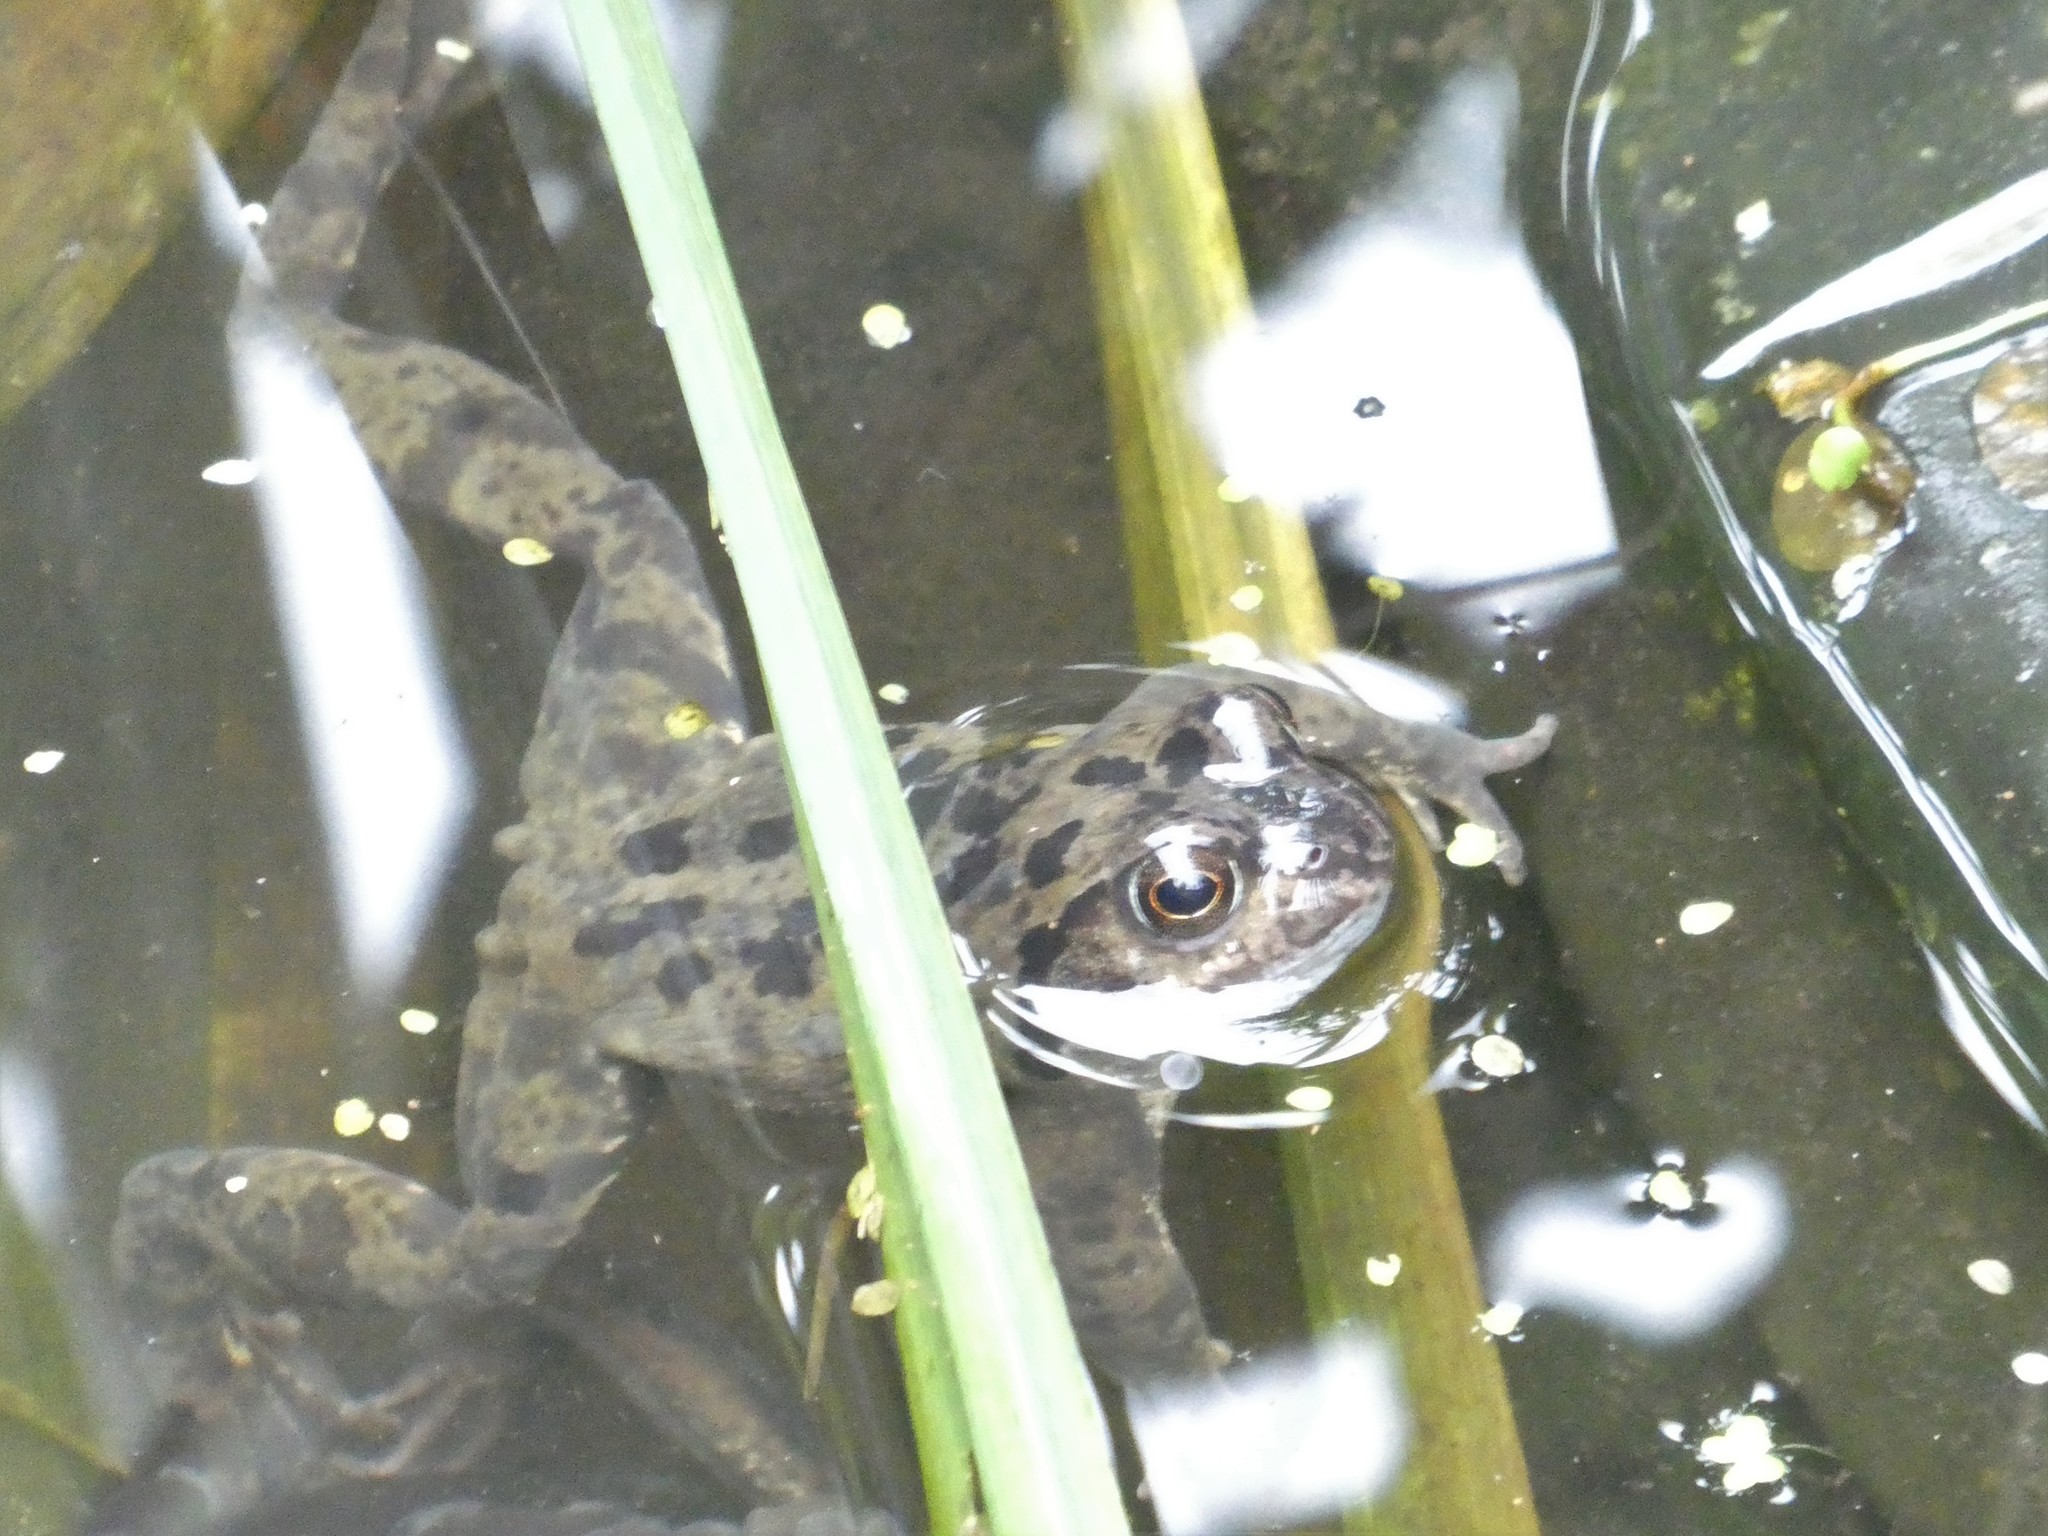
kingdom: Animalia
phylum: Chordata
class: Amphibia
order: Anura
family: Ranidae
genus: Rana
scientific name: Rana temporaria
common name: Common frog
